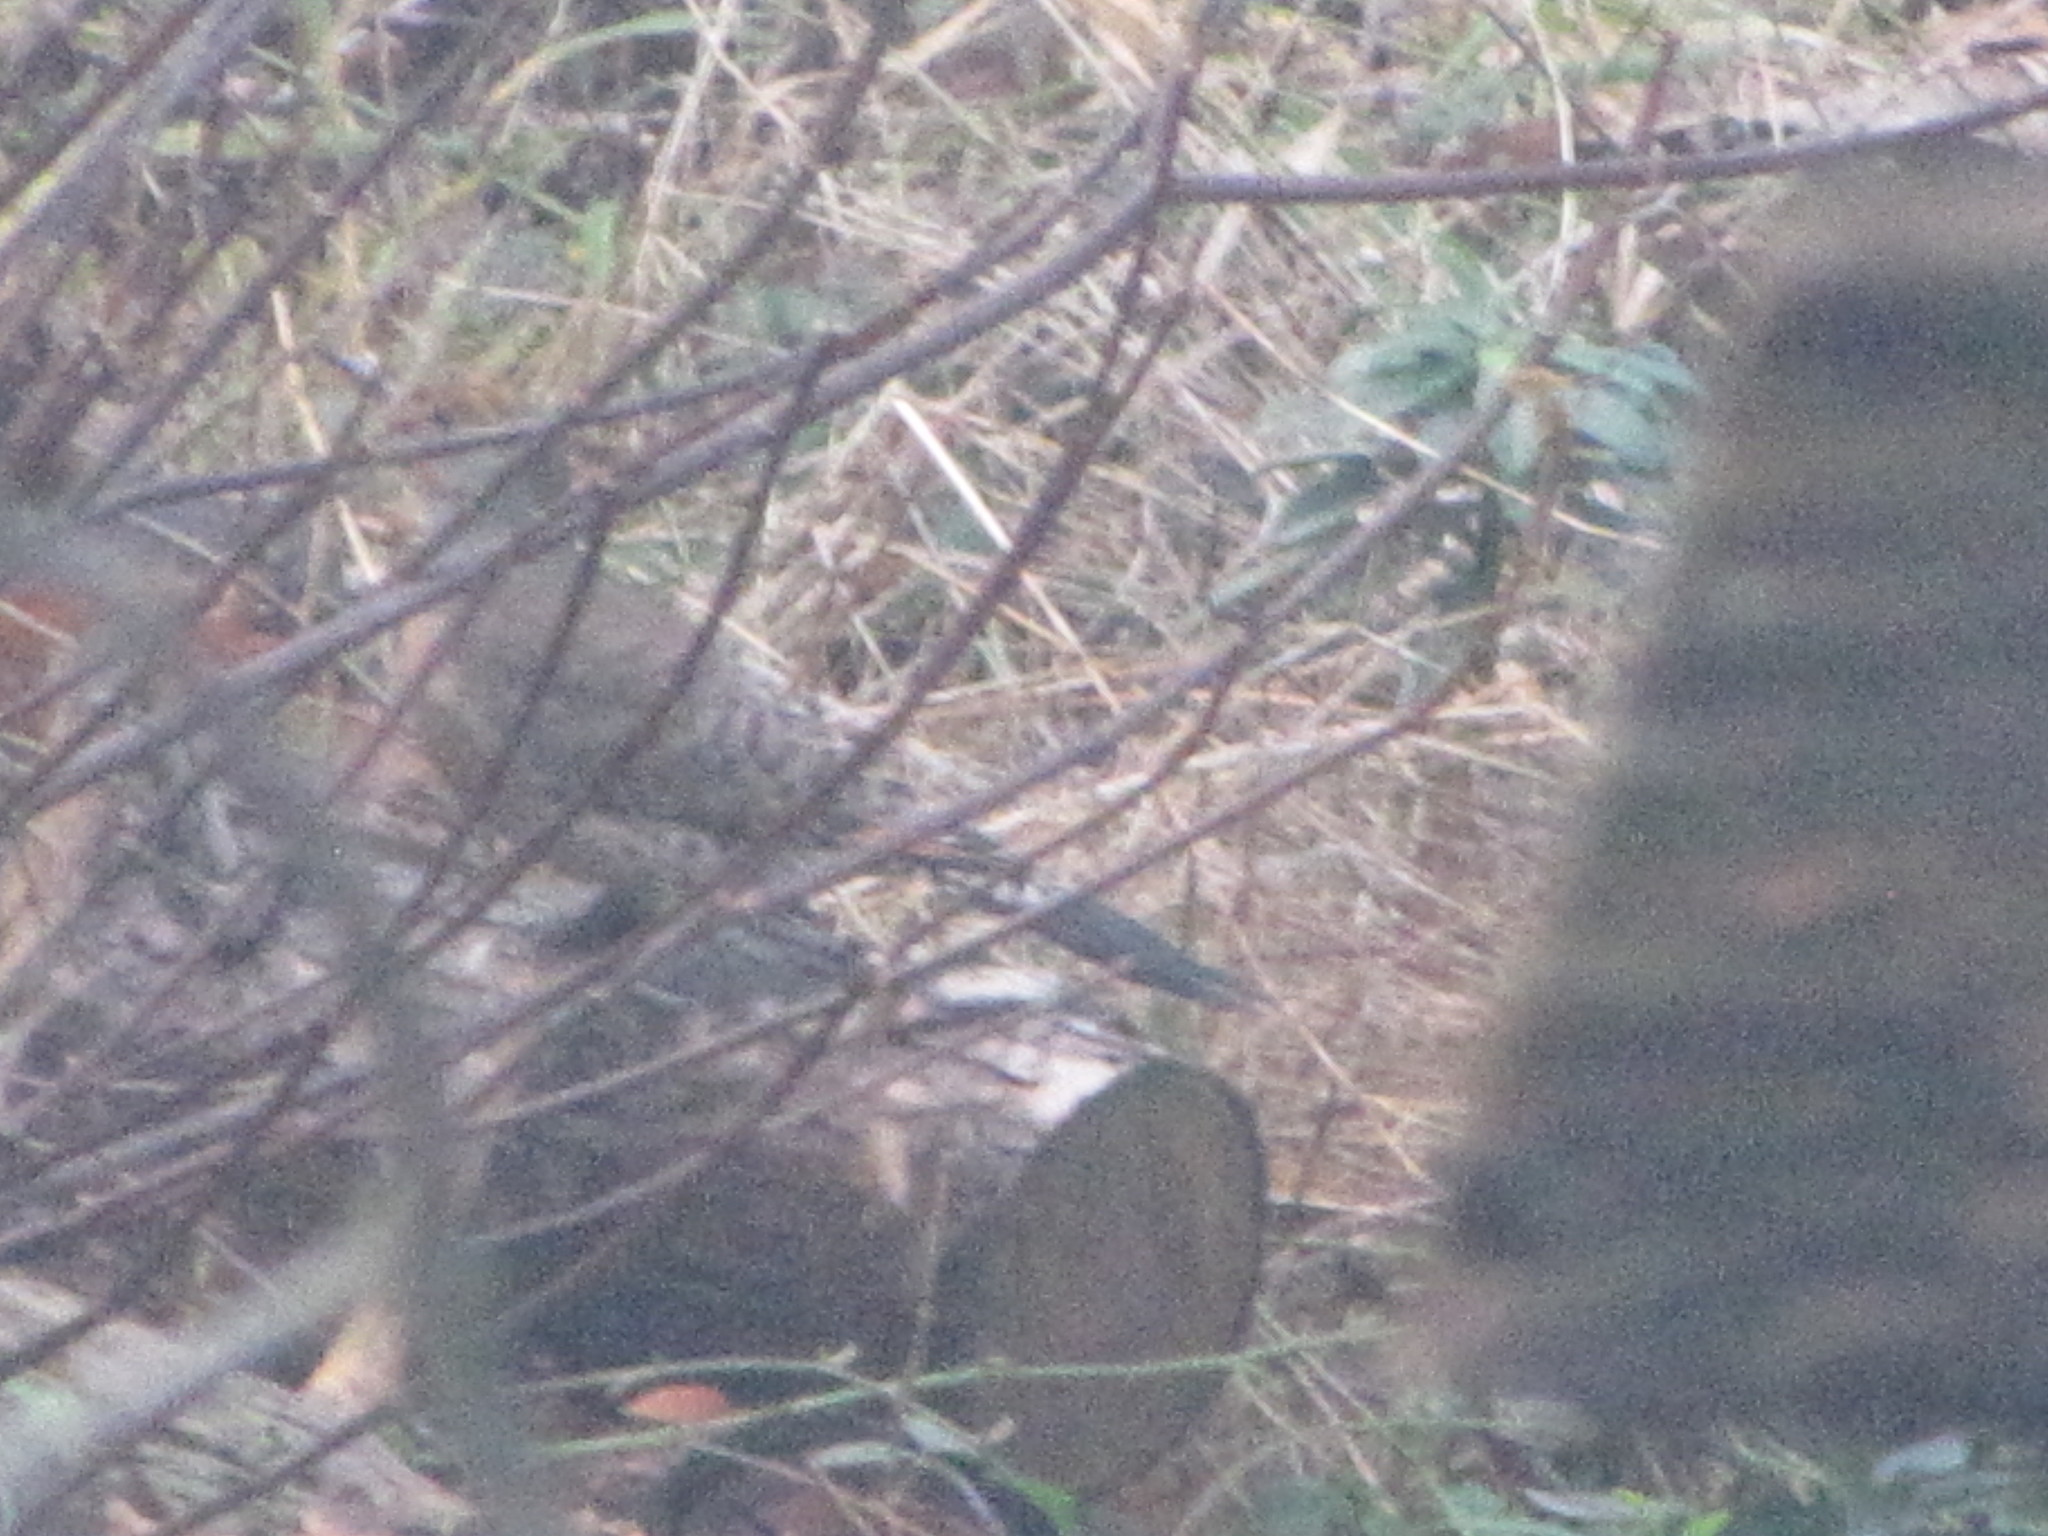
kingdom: Animalia
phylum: Chordata
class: Aves
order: Piciformes
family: Picidae
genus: Colaptes
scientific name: Colaptes auratus
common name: Northern flicker
